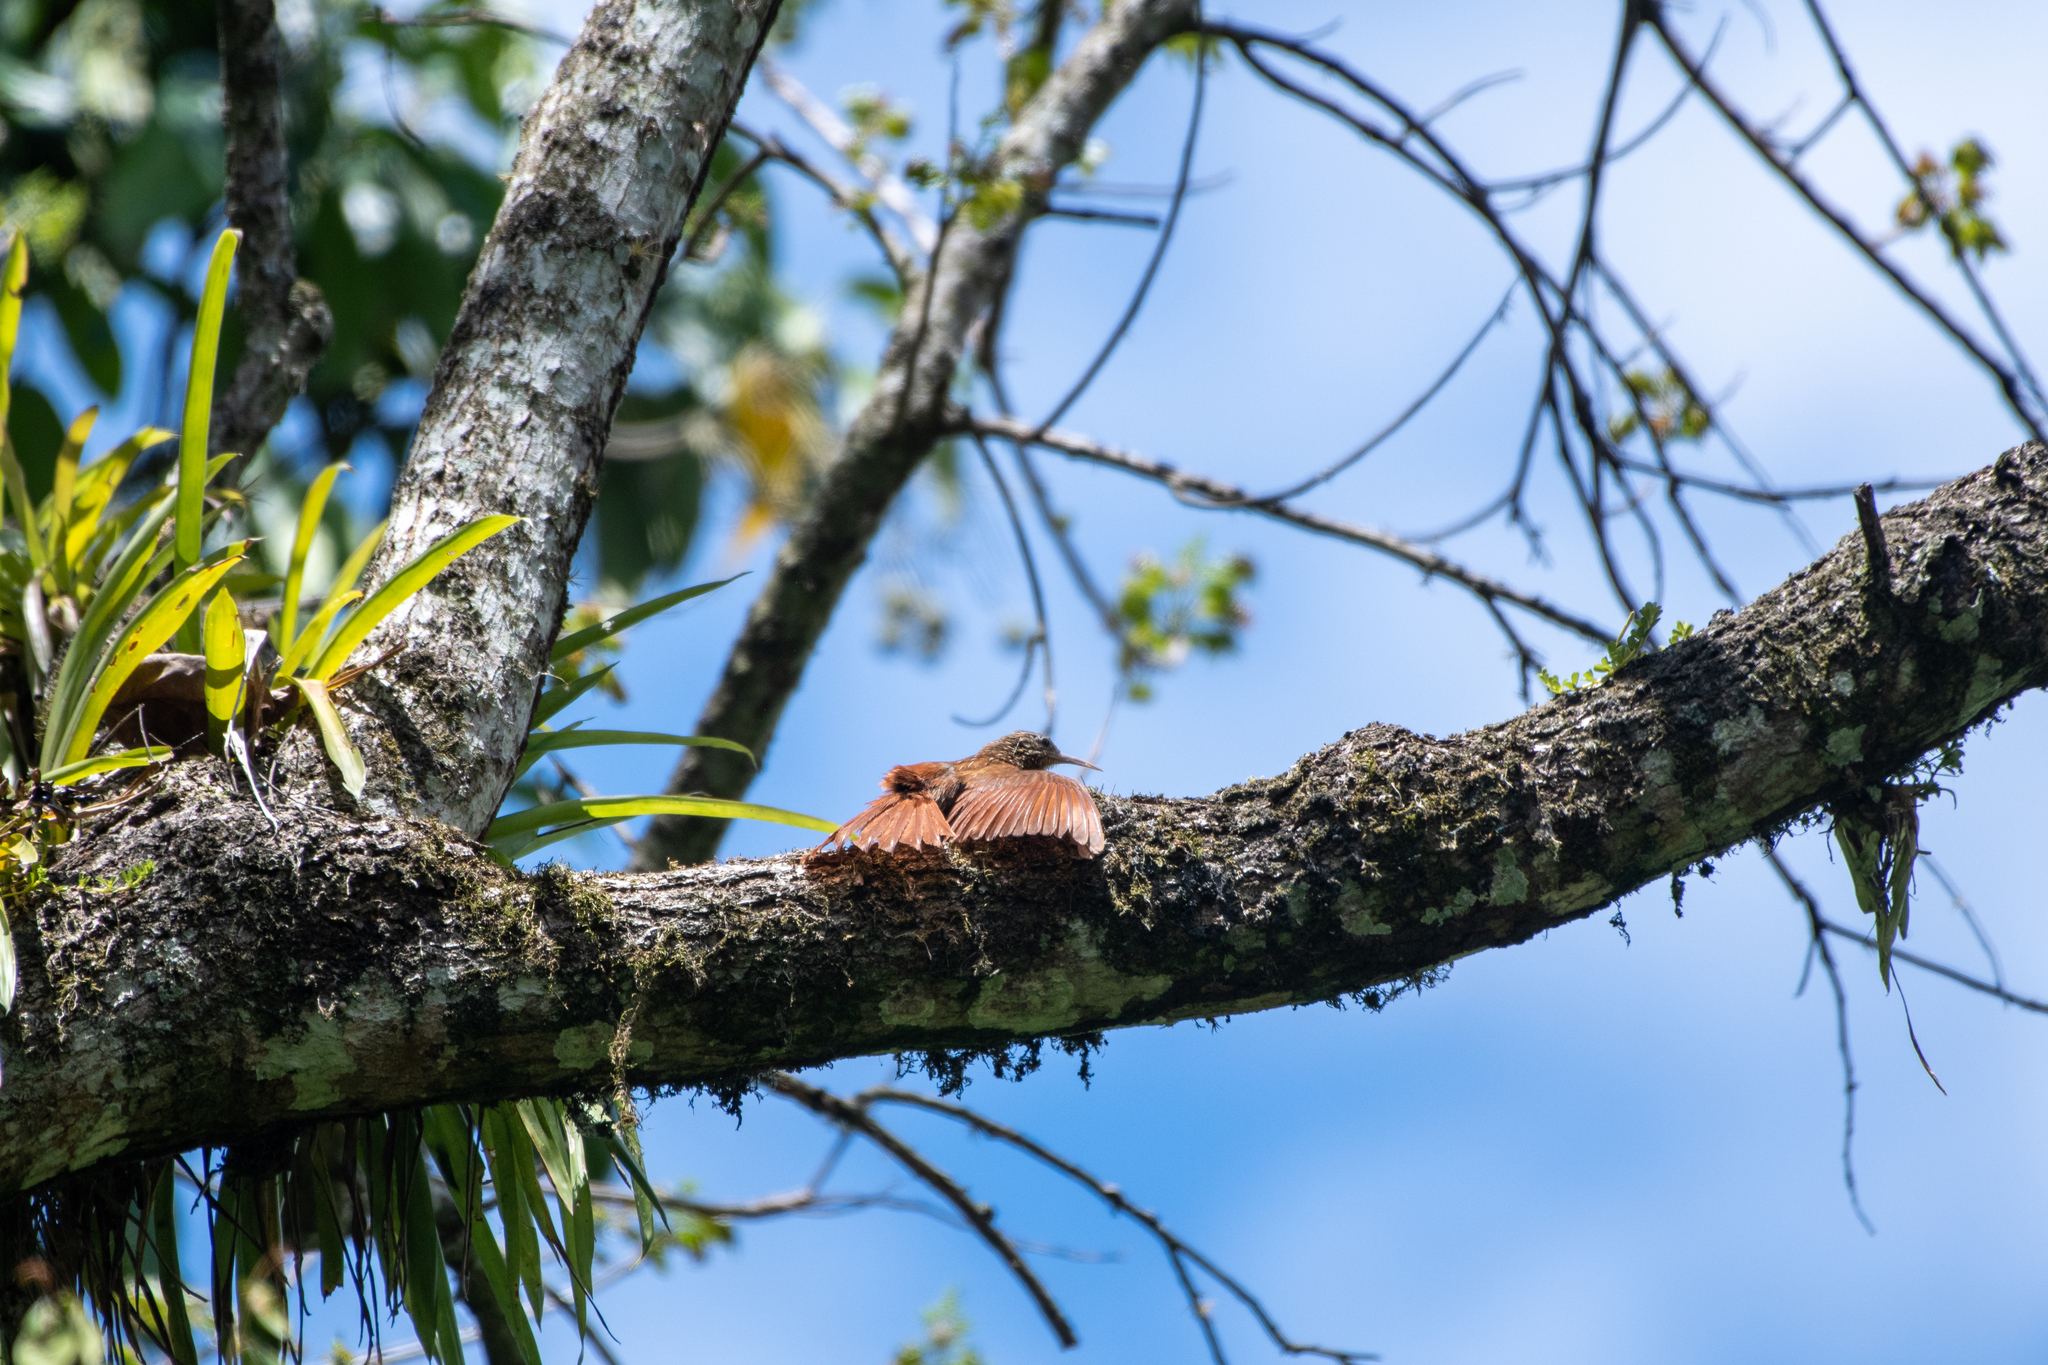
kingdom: Animalia
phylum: Chordata
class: Aves
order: Passeriformes
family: Furnariidae
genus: Lepidocolaptes
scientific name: Lepidocolaptes souleyetii
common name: Streak-headed woodcreeper
